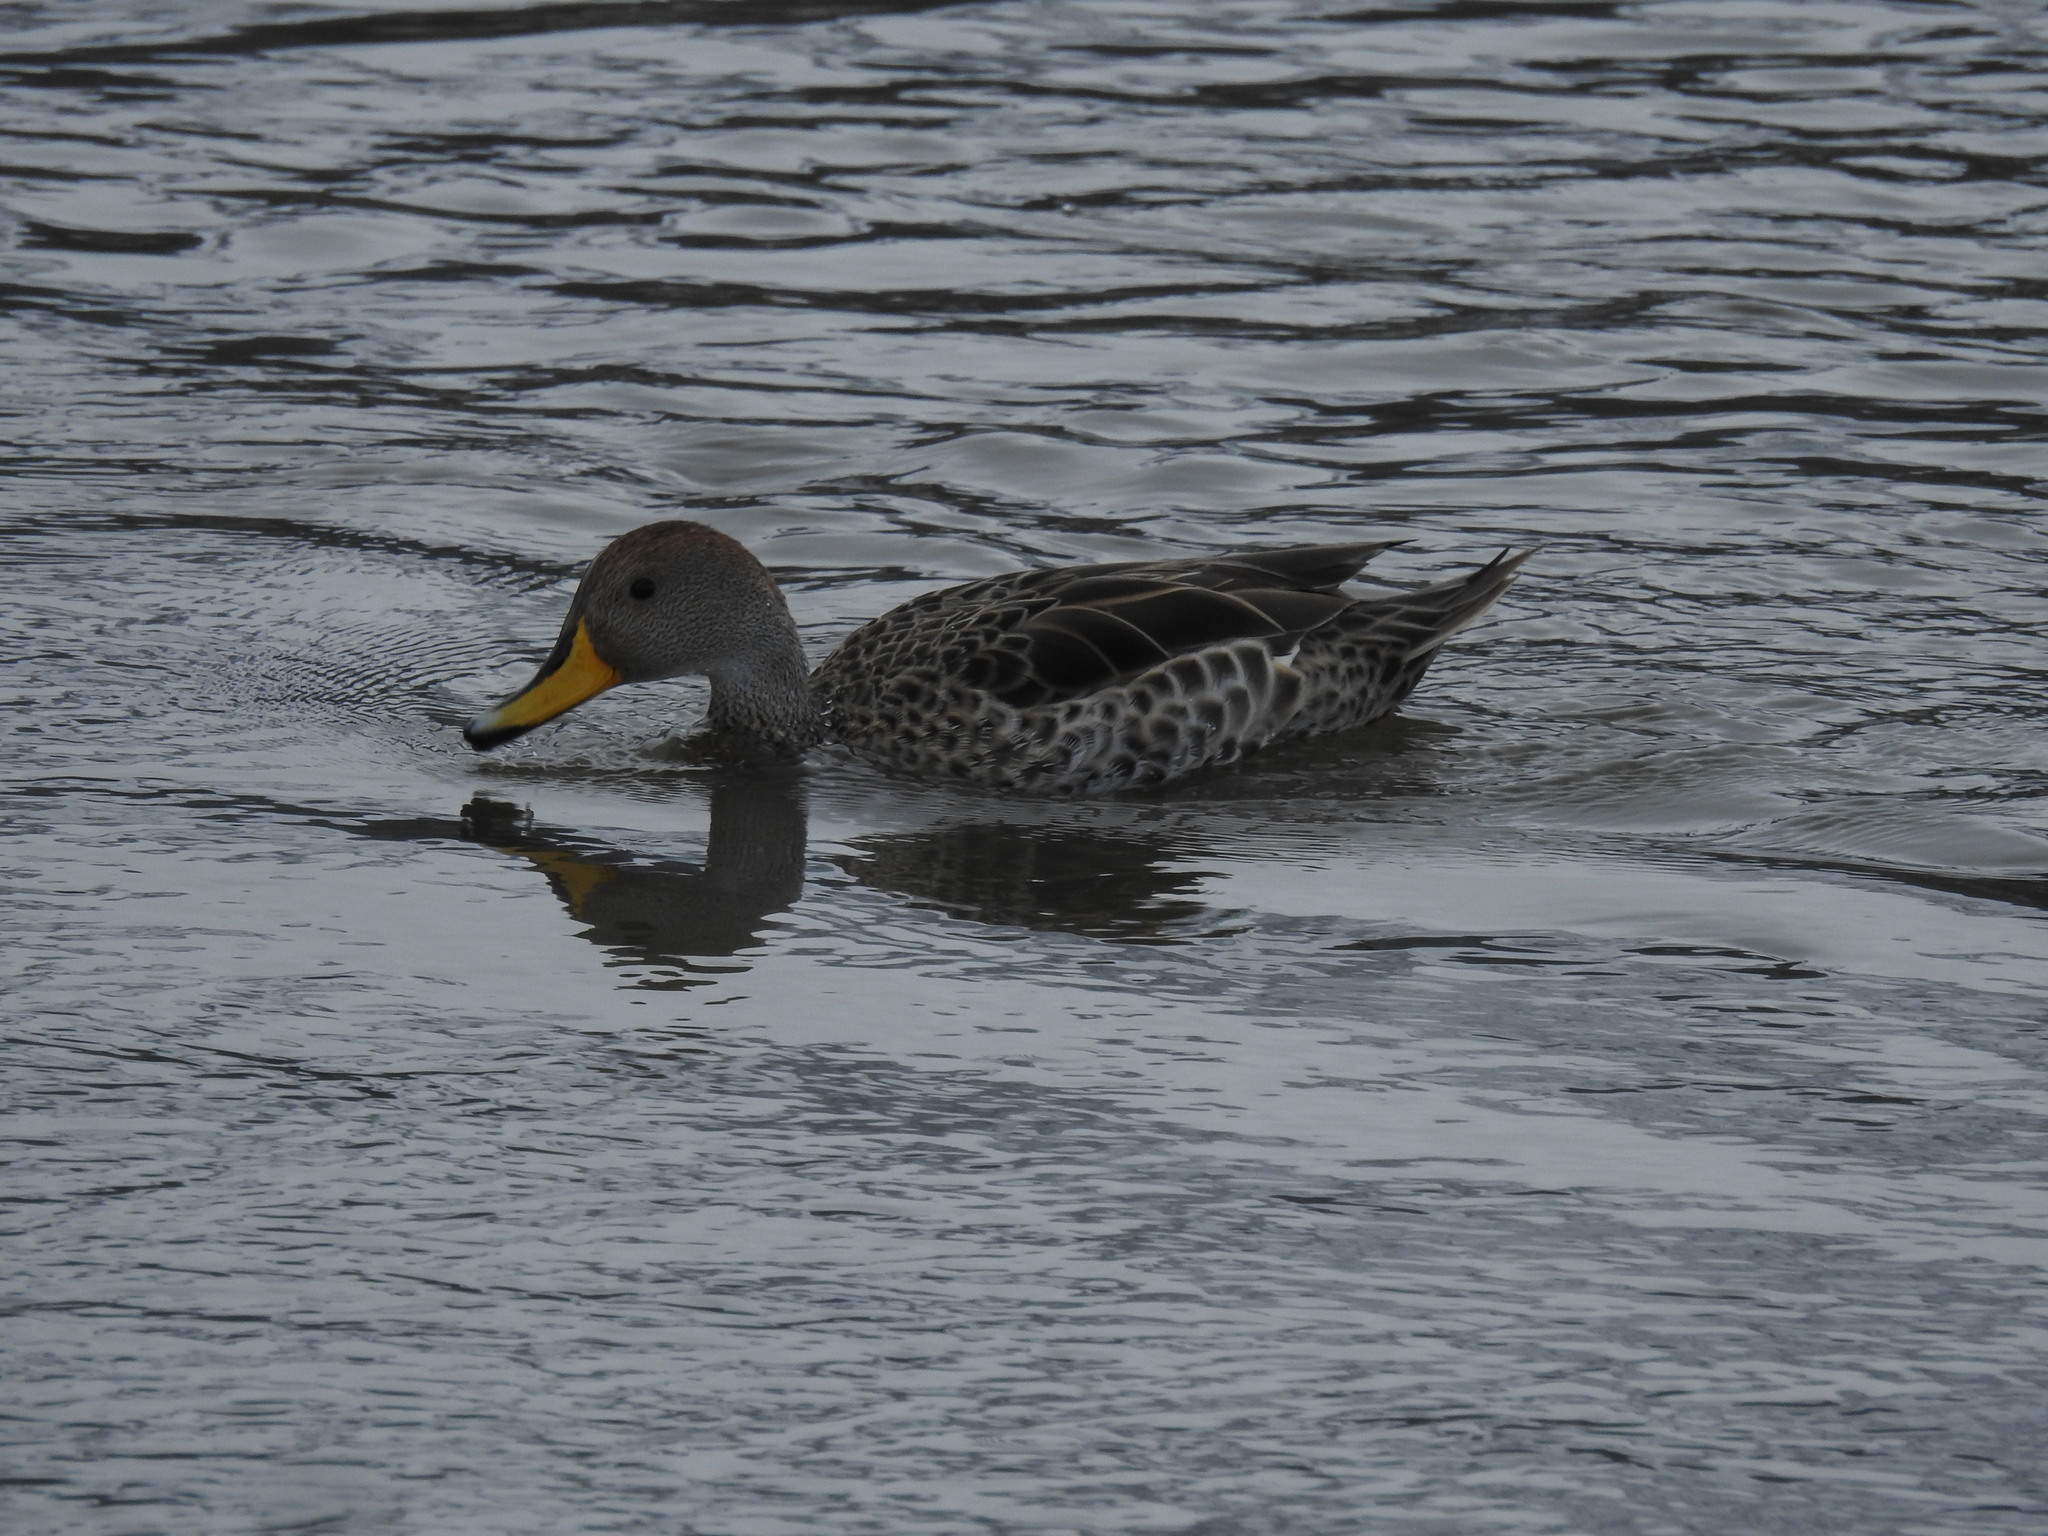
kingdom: Animalia
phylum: Chordata
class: Aves
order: Anseriformes
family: Anatidae
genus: Anas
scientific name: Anas georgica
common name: Yellow-billed pintail
